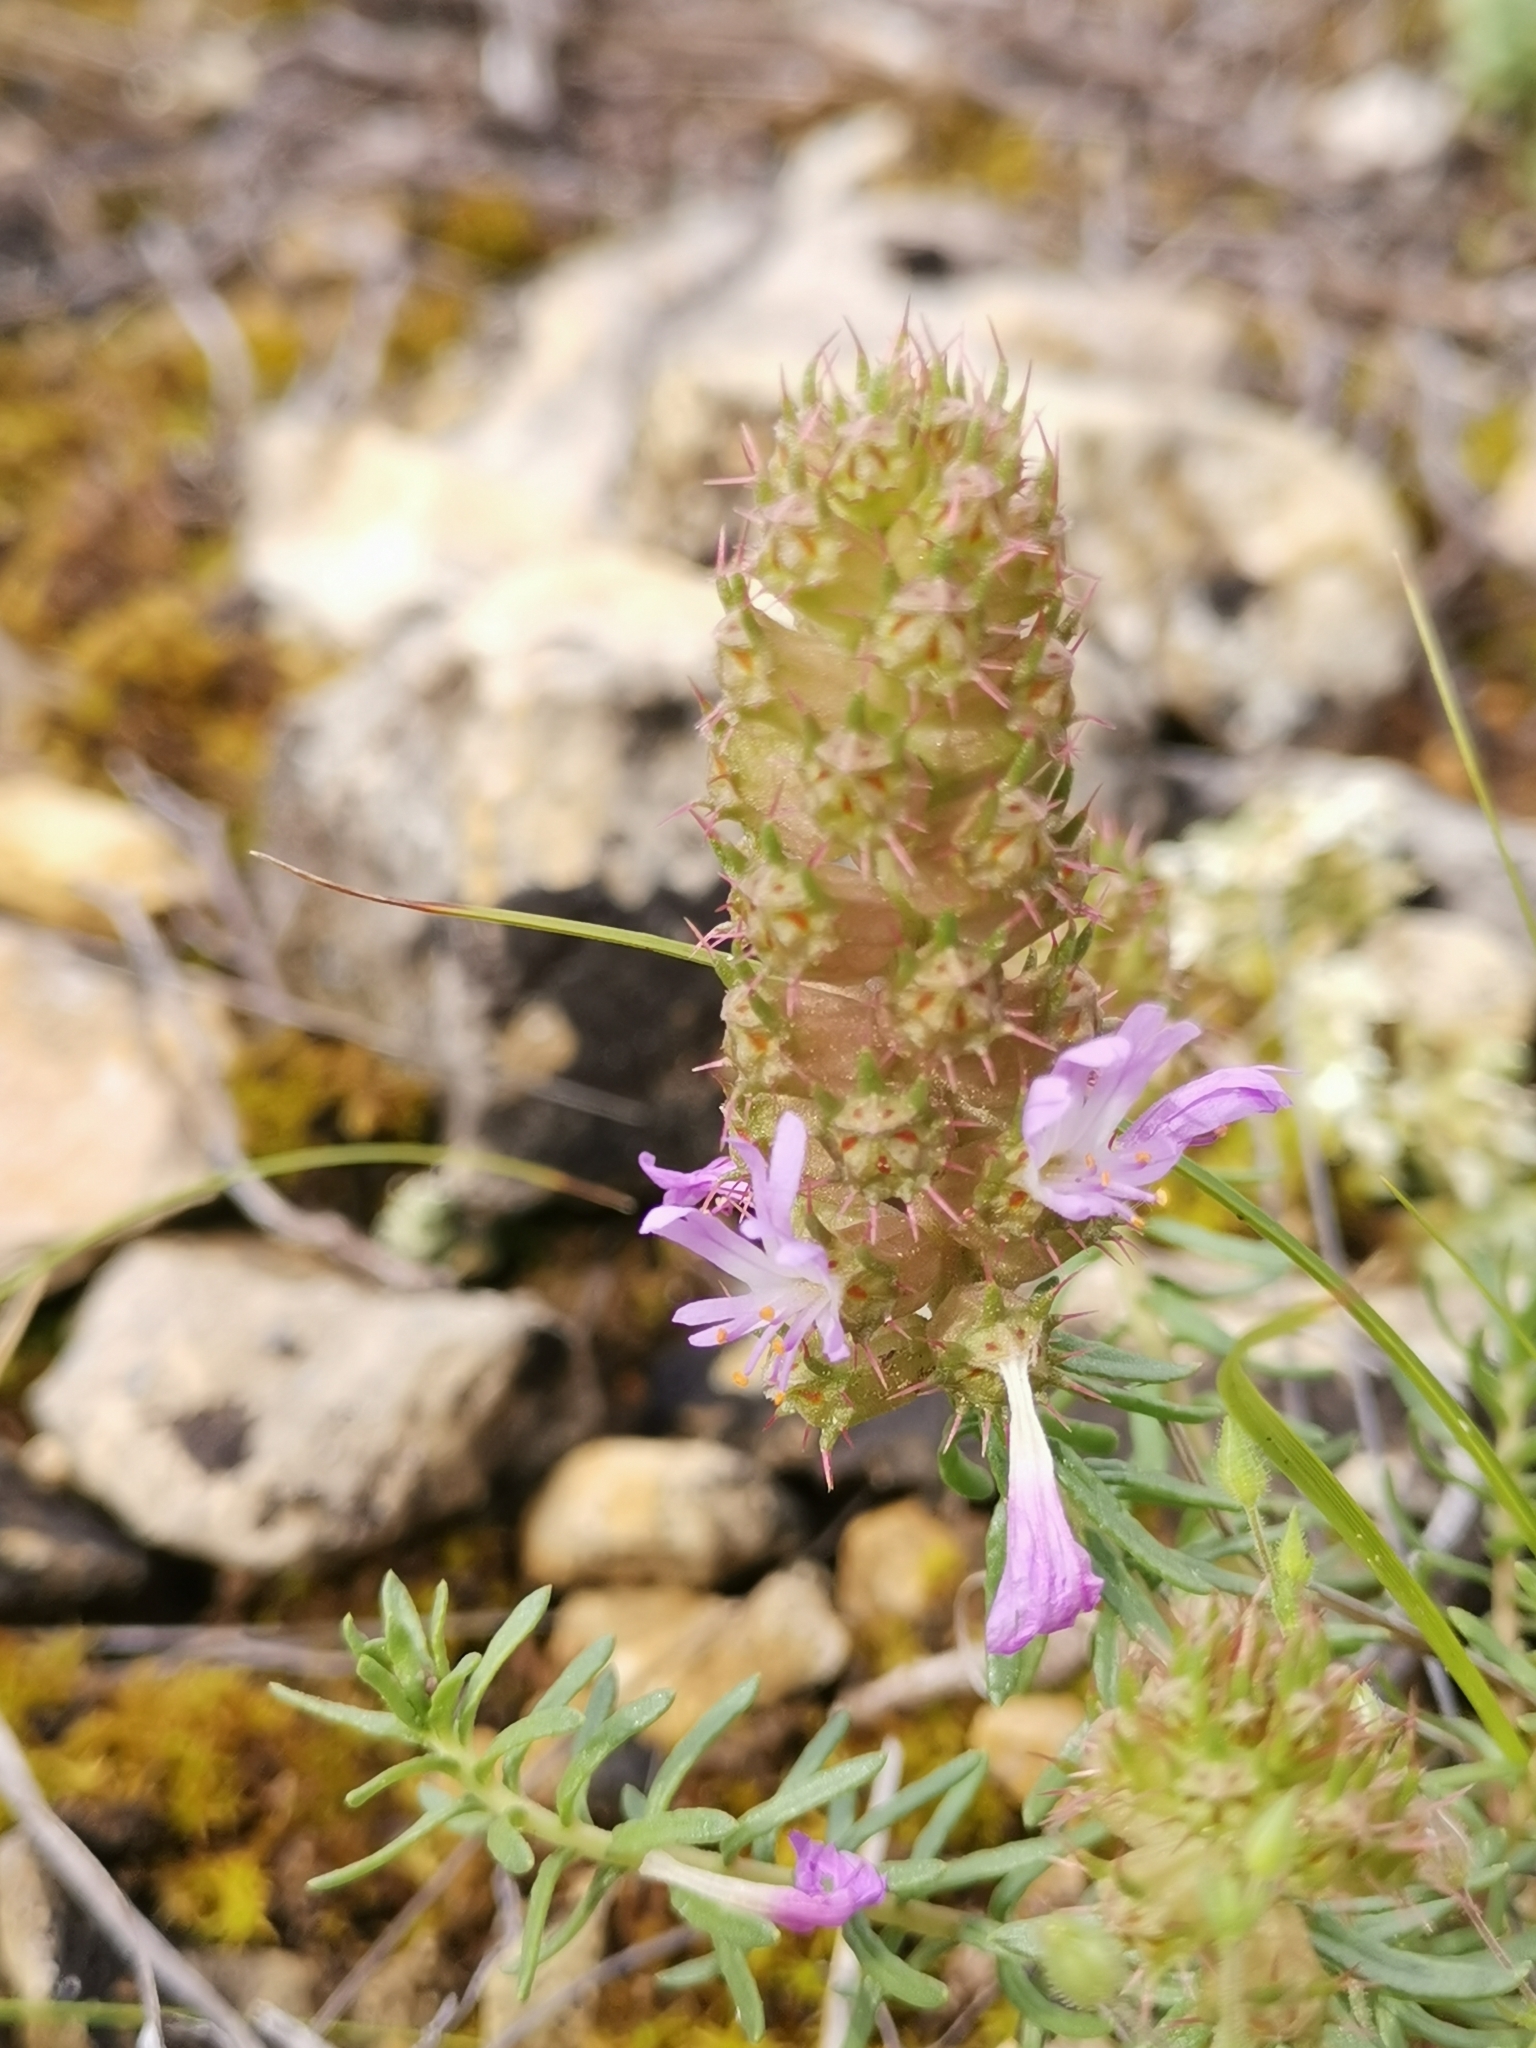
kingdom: Plantae
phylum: Tracheophyta
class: Magnoliopsida
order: Ericales
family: Primulaceae
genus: Coris
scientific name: Coris monspeliensis
